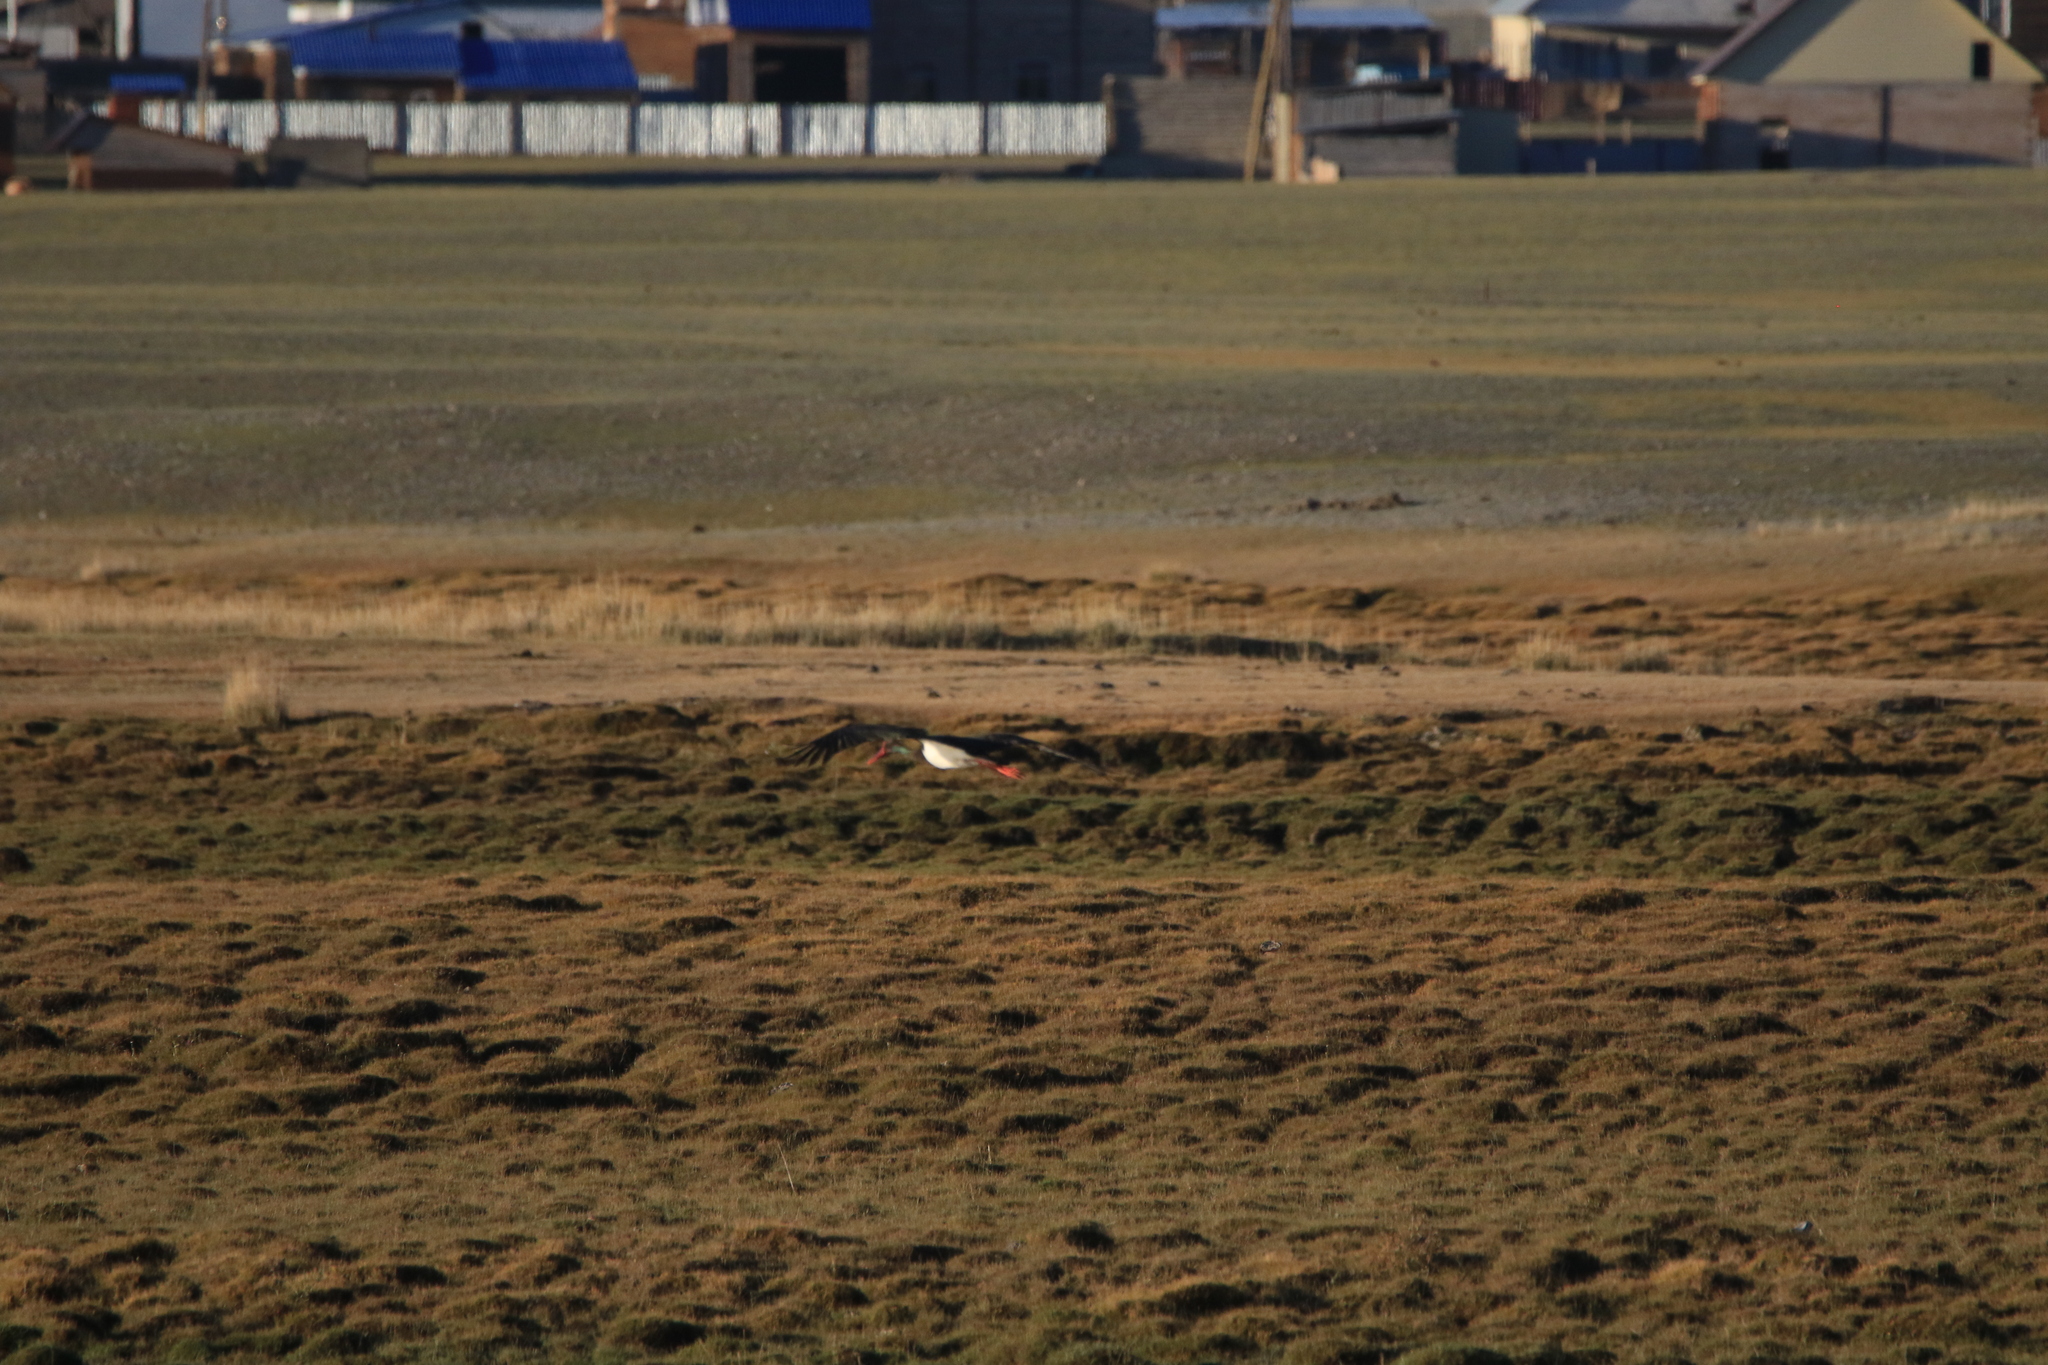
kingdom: Animalia
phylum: Chordata
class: Aves
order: Ciconiiformes
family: Ciconiidae
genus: Ciconia
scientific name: Ciconia nigra
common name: Black stork
